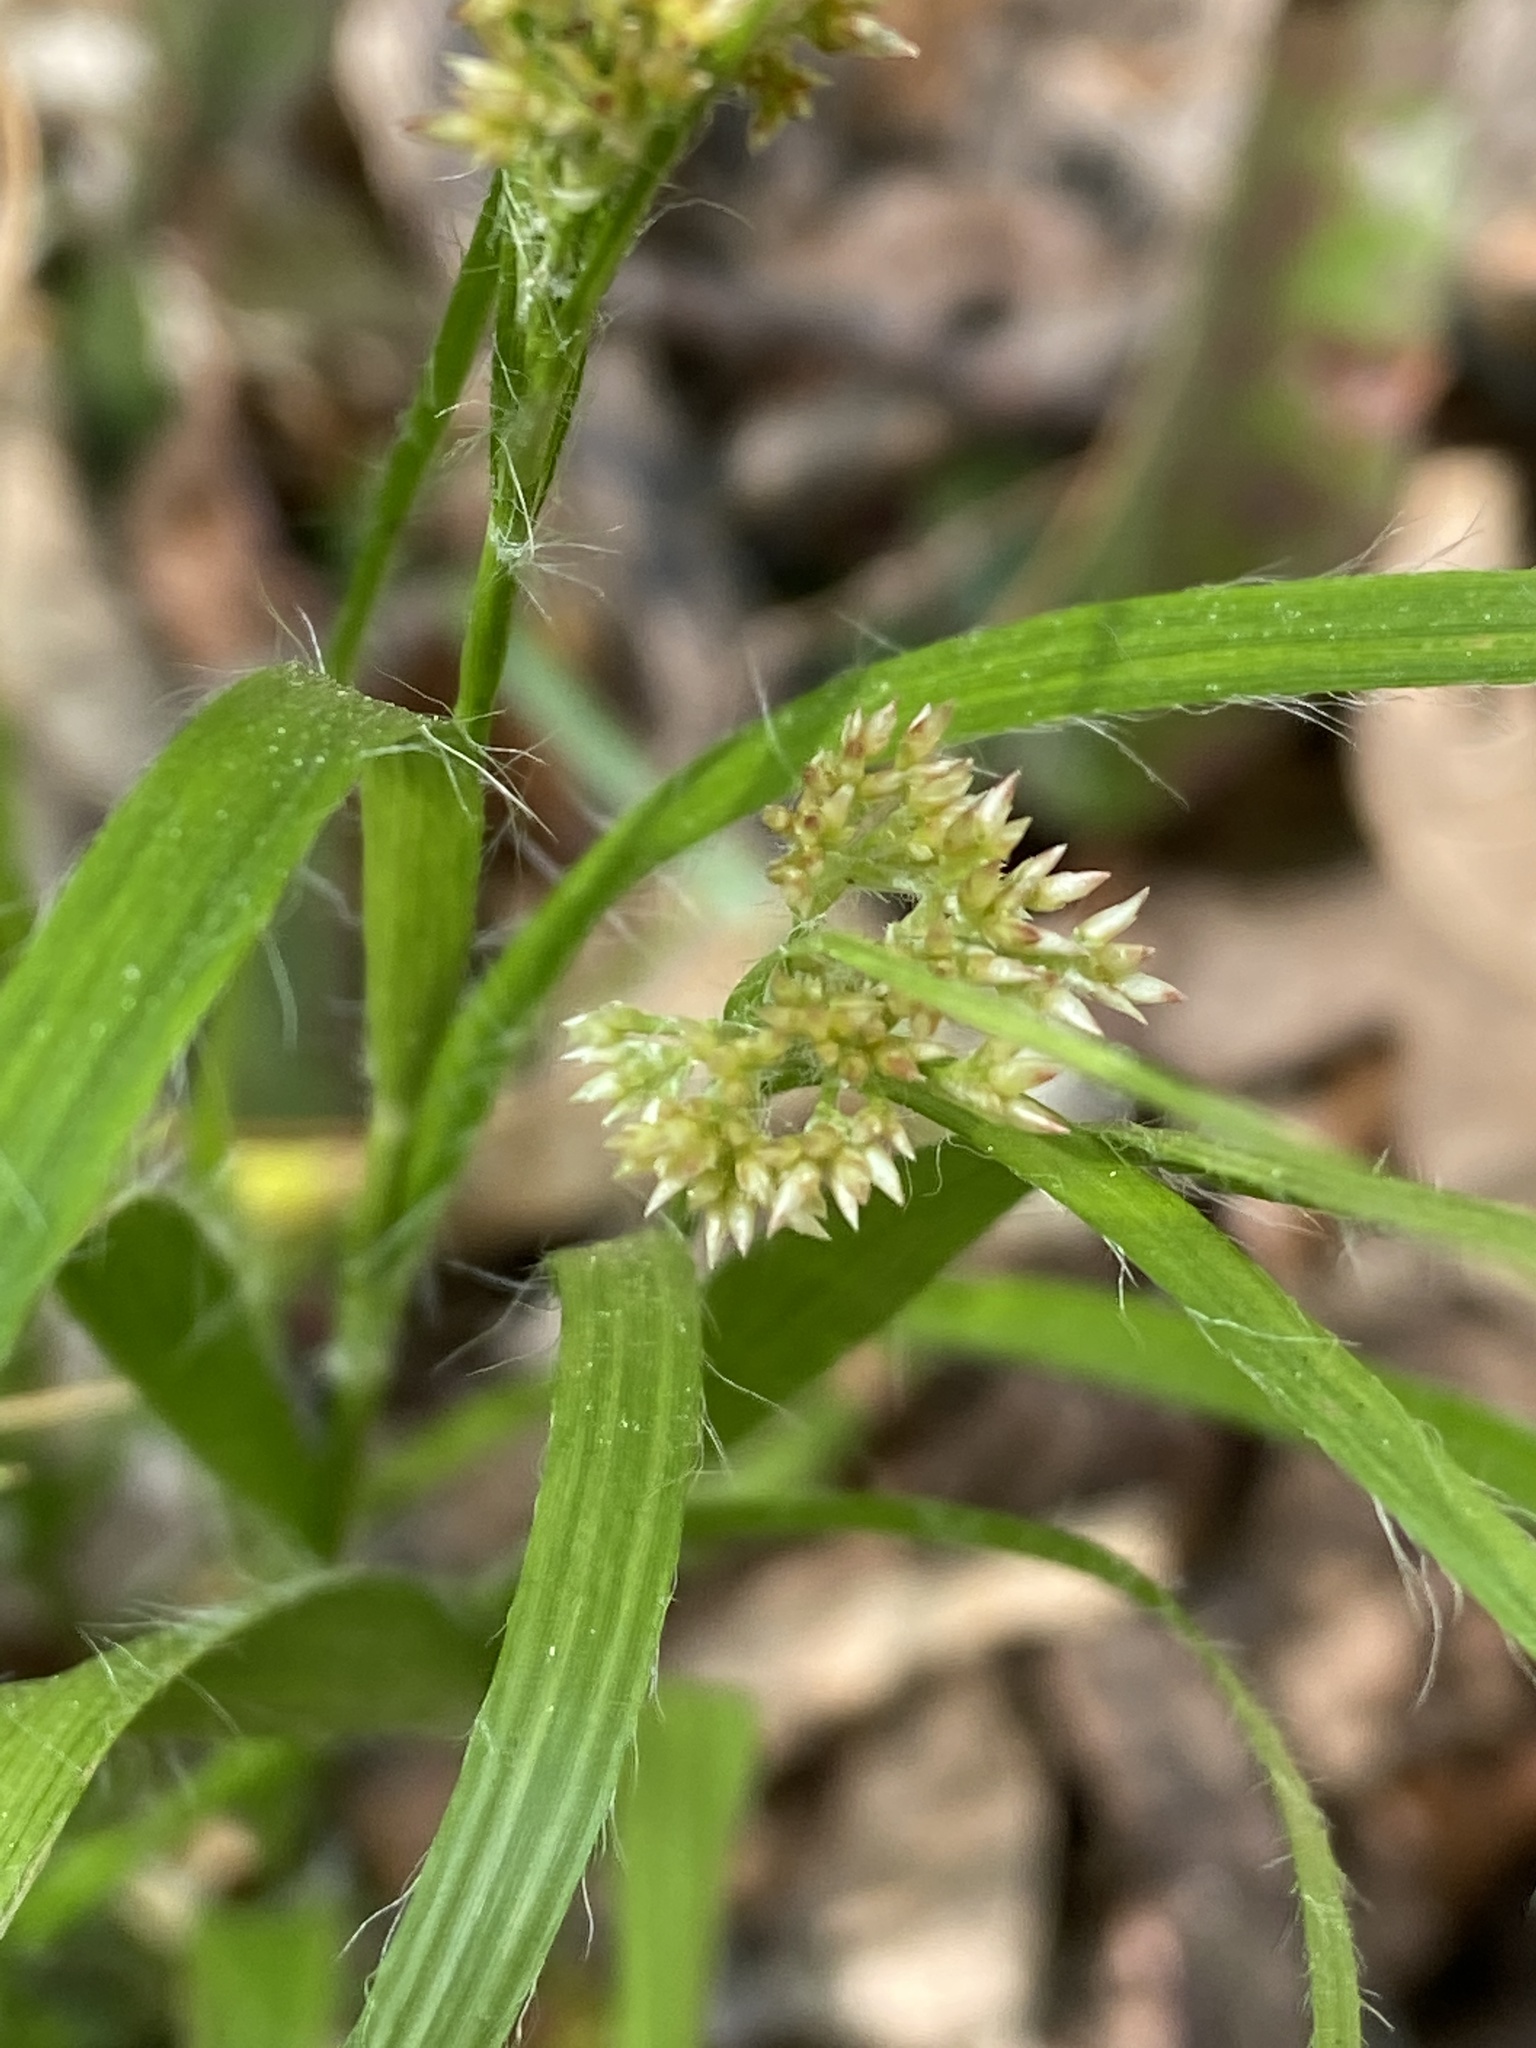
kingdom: Plantae
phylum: Tracheophyta
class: Liliopsida
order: Poales
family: Juncaceae
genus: Luzula
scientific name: Luzula luzuloides
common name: White wood-rush
